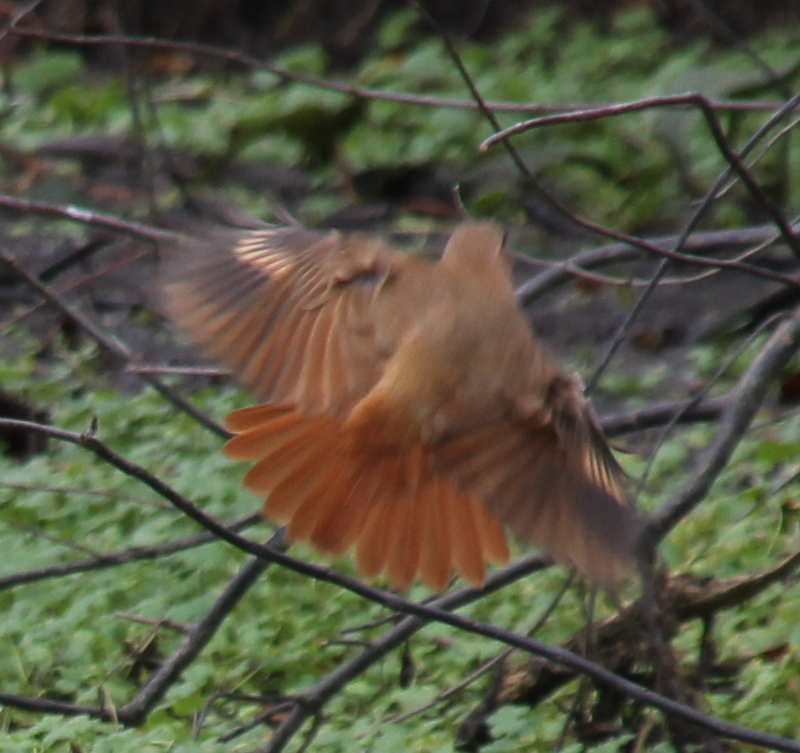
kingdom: Animalia
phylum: Chordata
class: Aves
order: Passeriformes
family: Furnariidae
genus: Furnarius
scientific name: Furnarius rufus
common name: Rufous hornero
